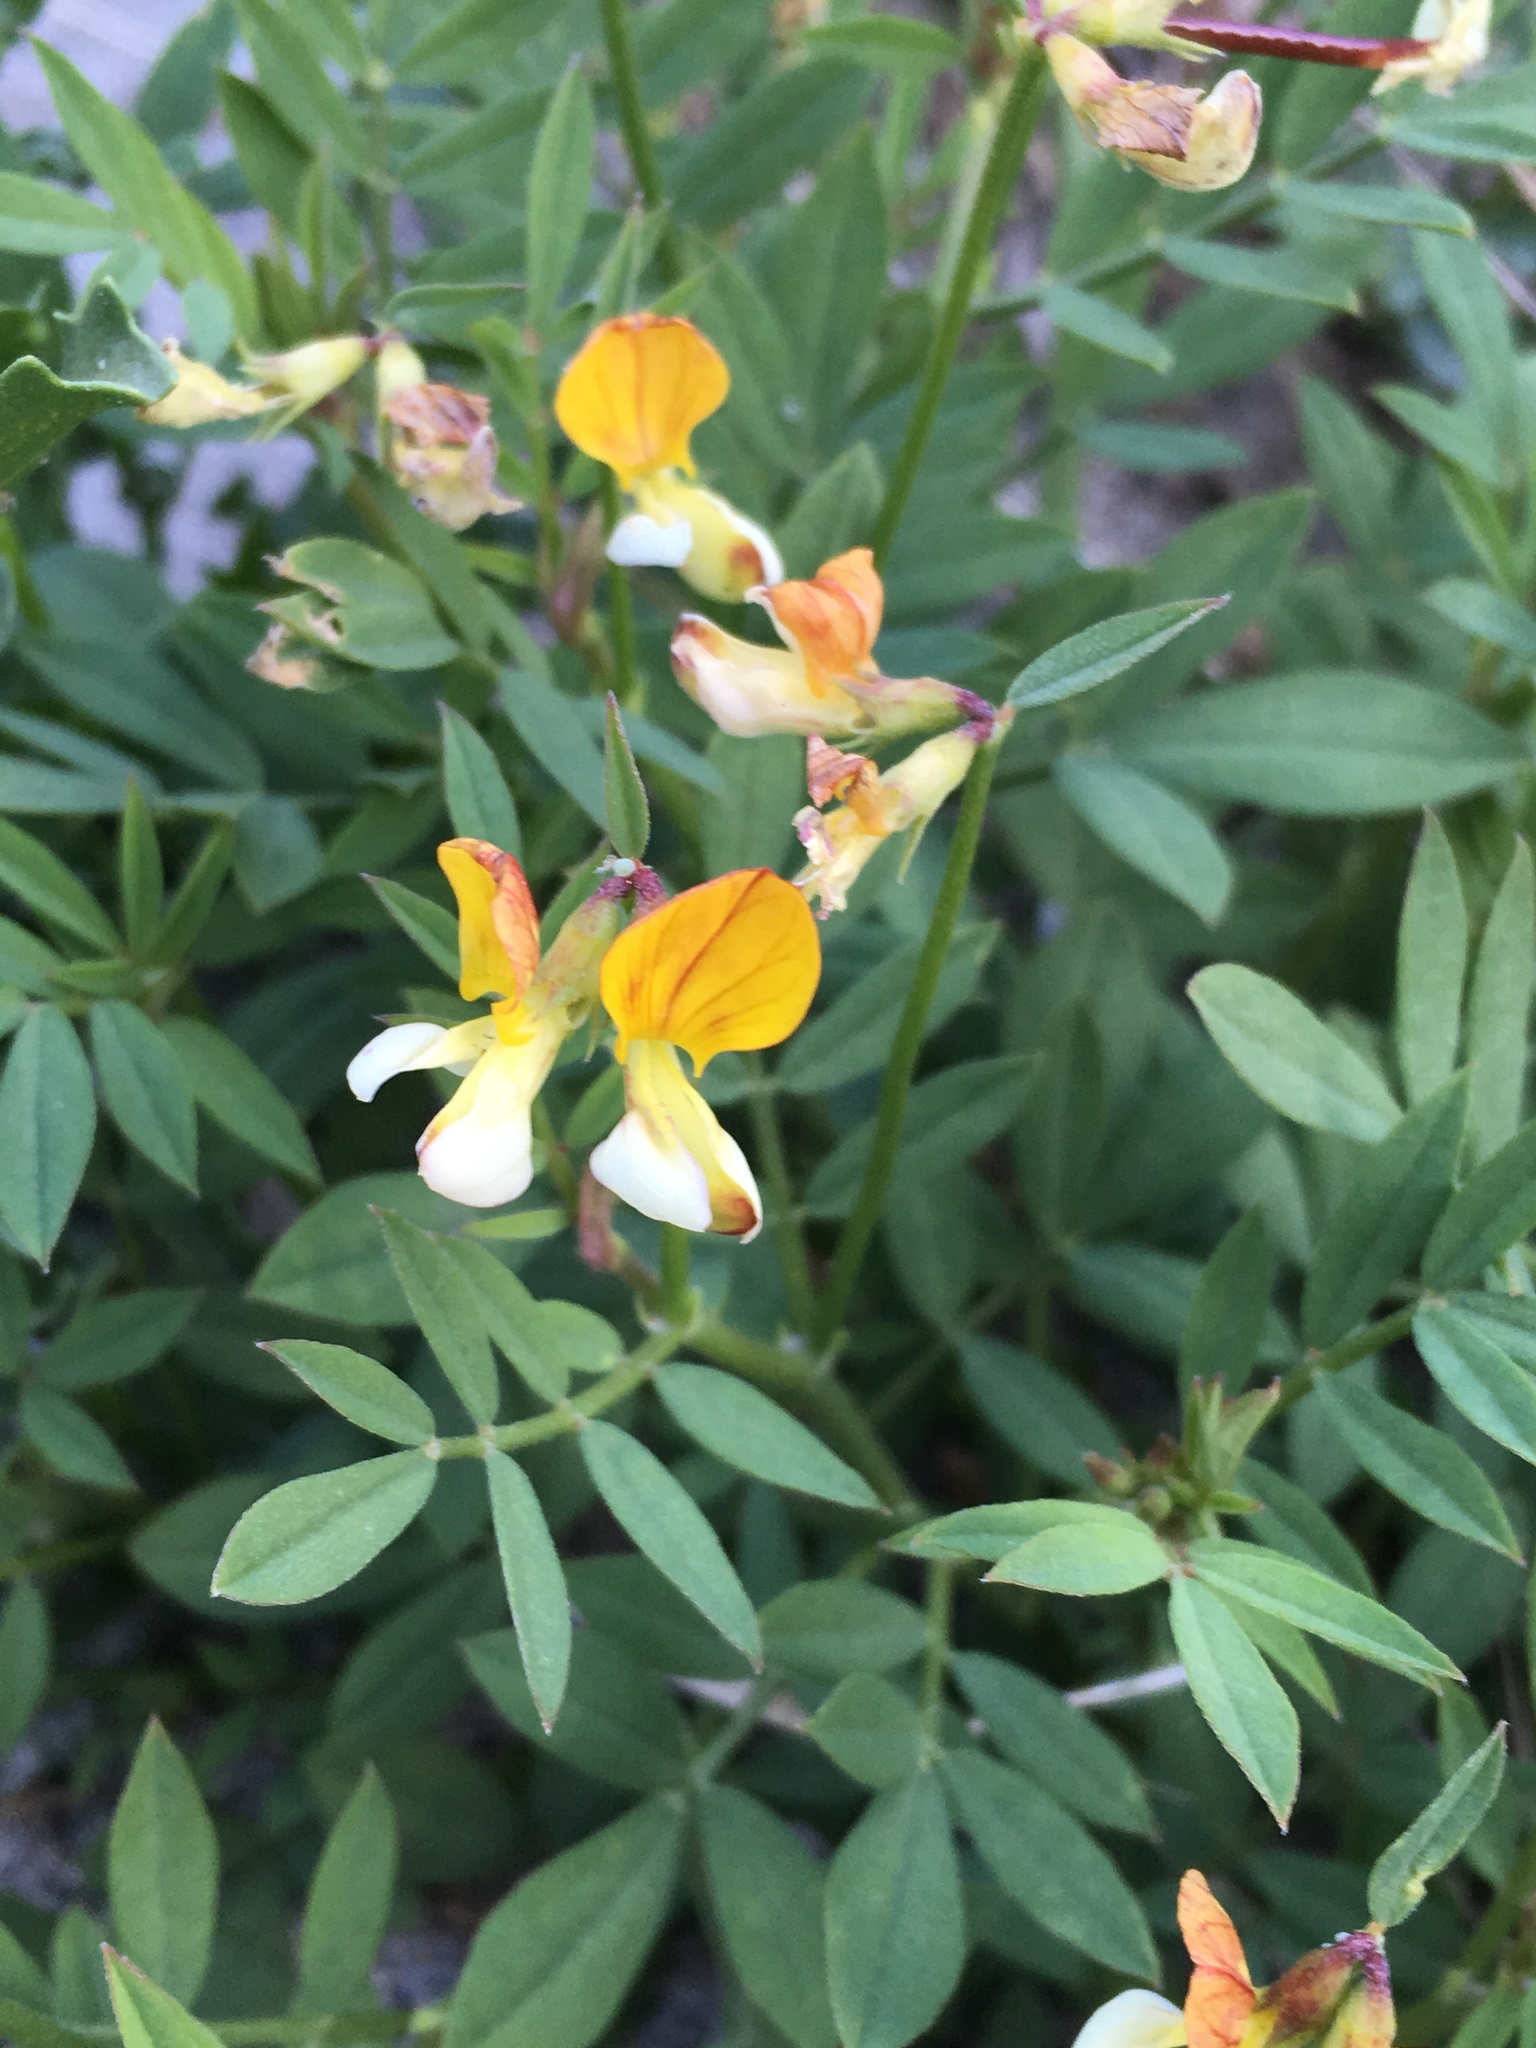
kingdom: Plantae
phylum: Tracheophyta
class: Magnoliopsida
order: Fabales
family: Fabaceae
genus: Hosackia
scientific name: Hosackia oblongifolia
